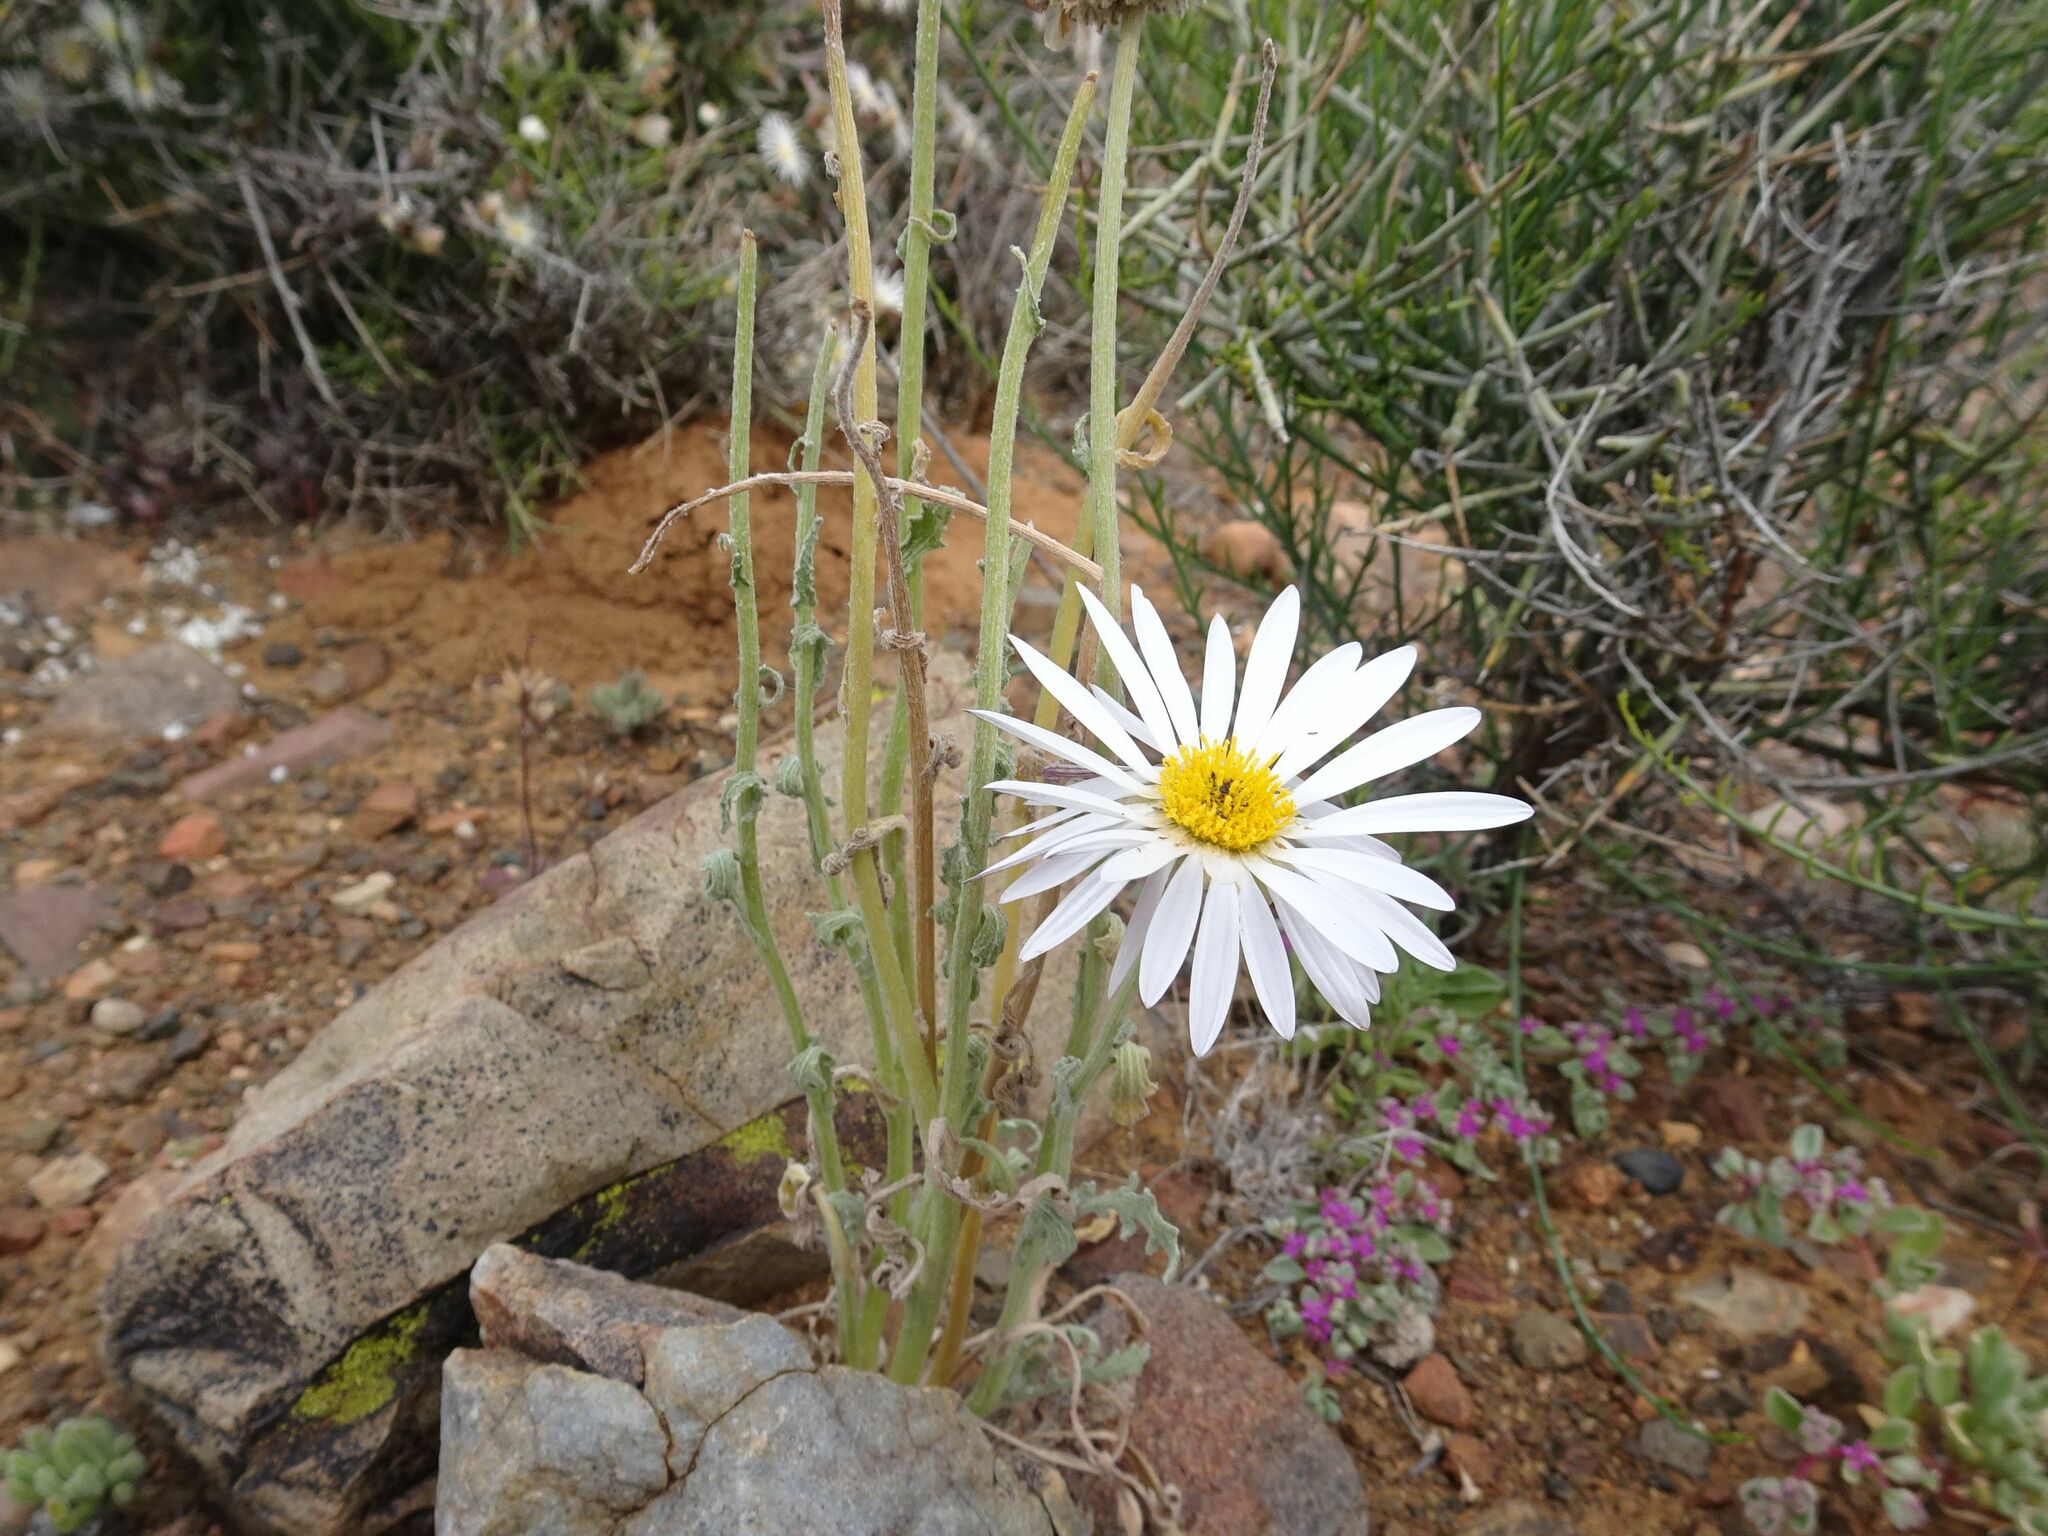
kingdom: Plantae
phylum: Tracheophyta
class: Magnoliopsida
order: Asterales
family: Asteraceae
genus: Arctotis
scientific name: Arctotis leiocarpa
